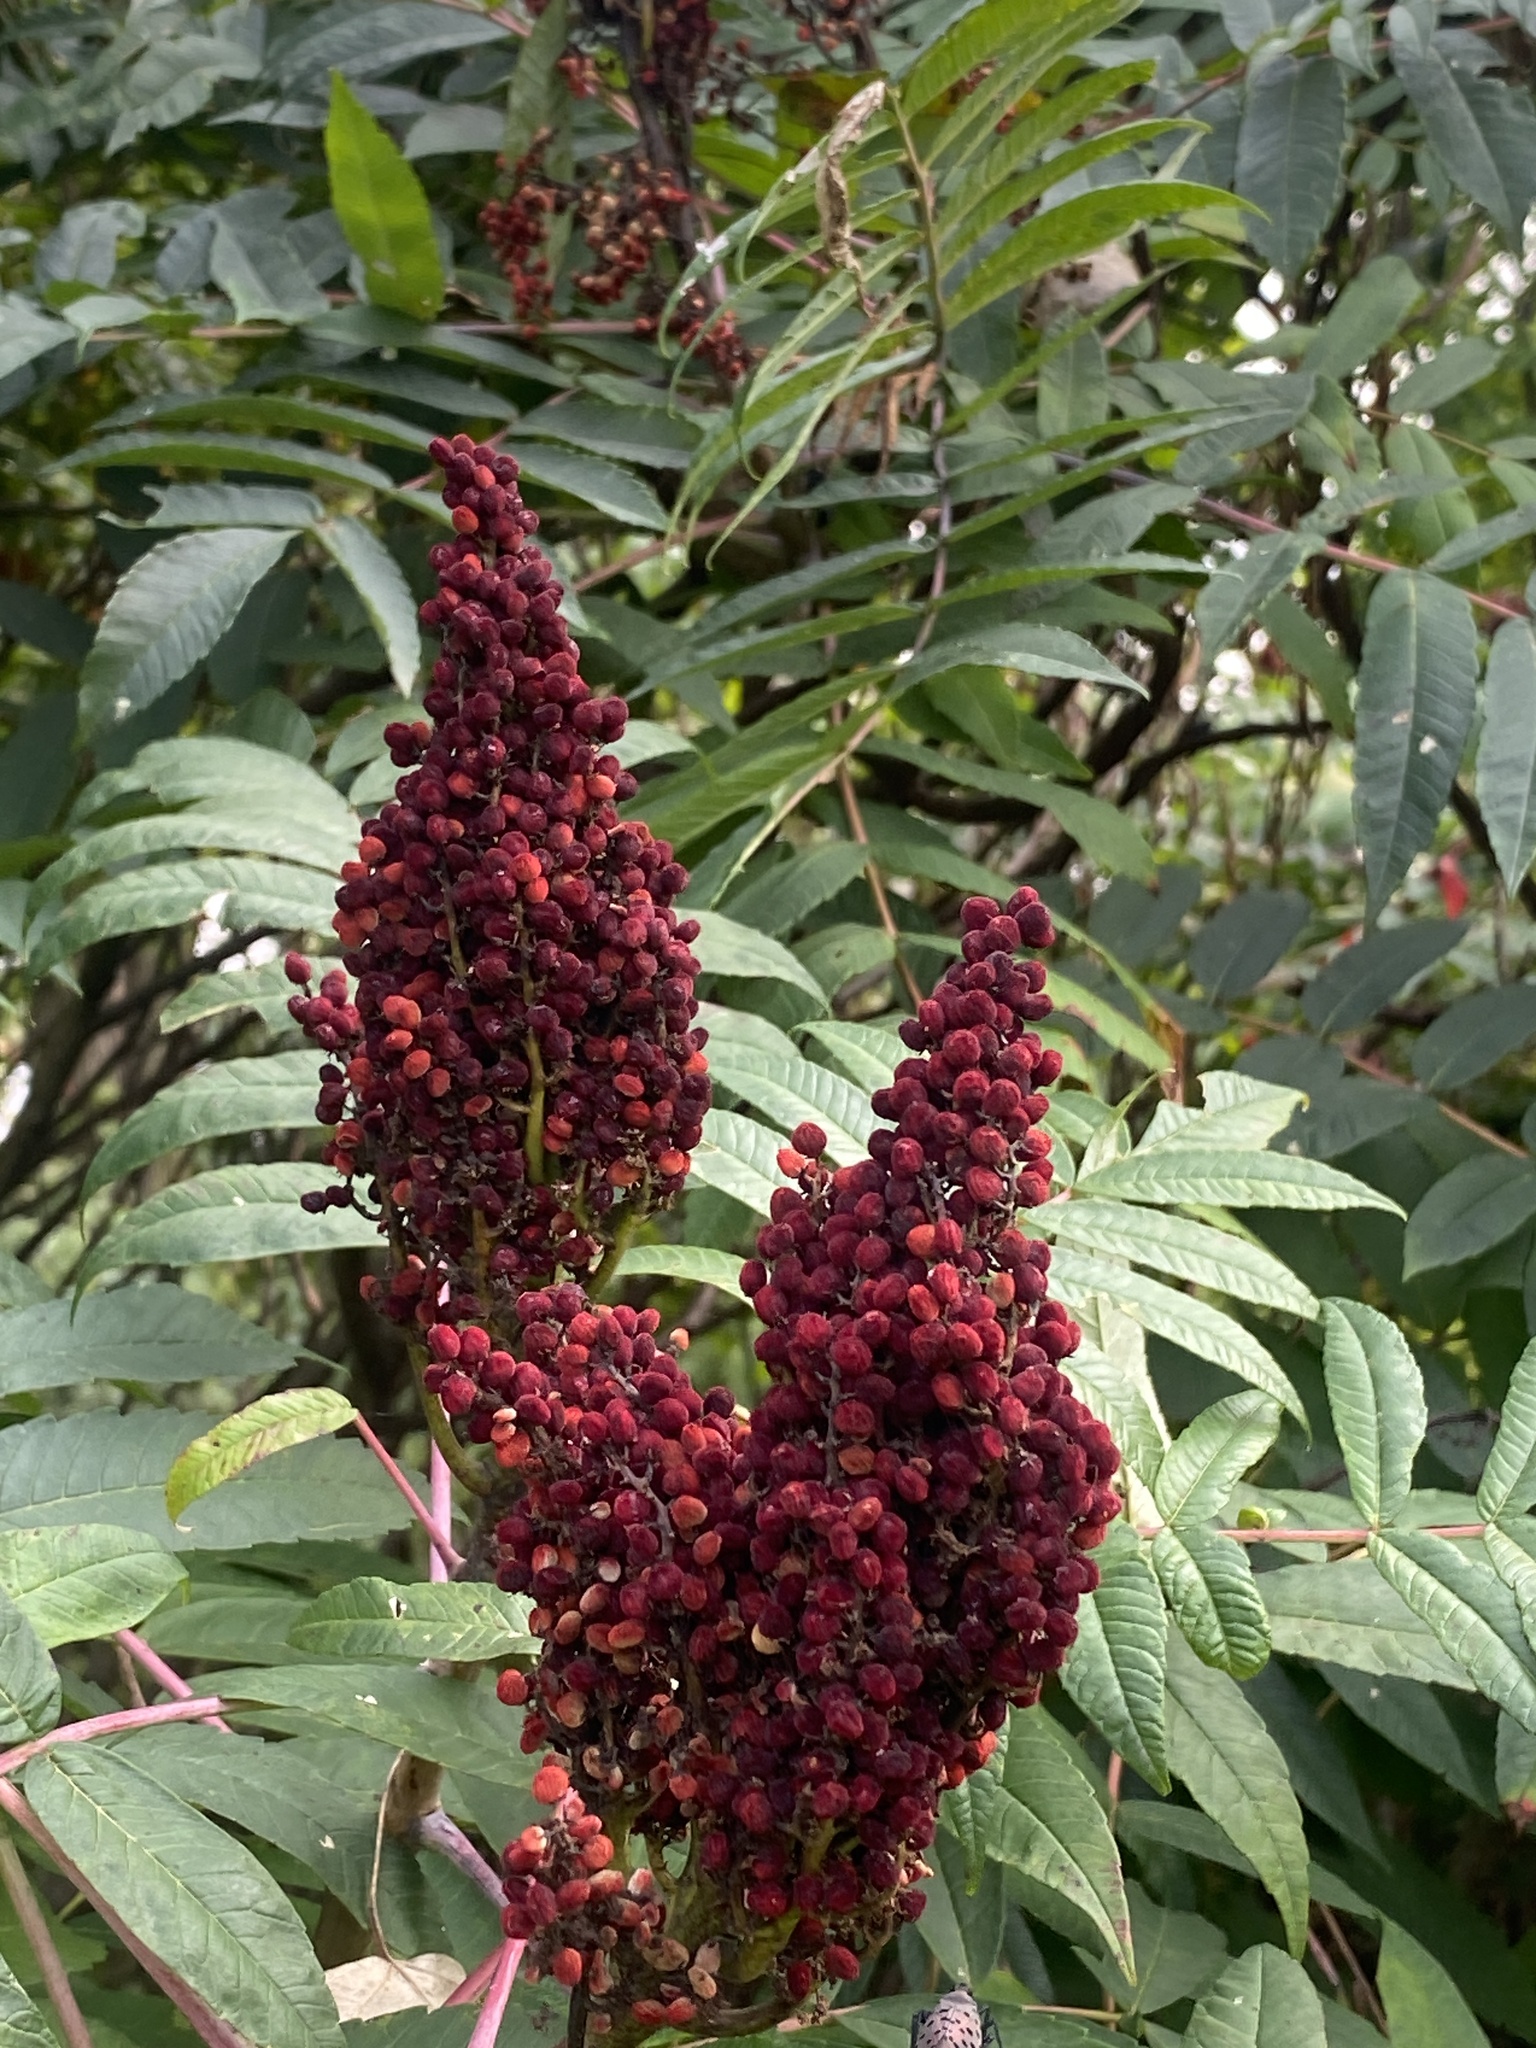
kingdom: Plantae
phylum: Tracheophyta
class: Magnoliopsida
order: Sapindales
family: Anacardiaceae
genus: Rhus
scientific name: Rhus glabra
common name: Scarlet sumac
